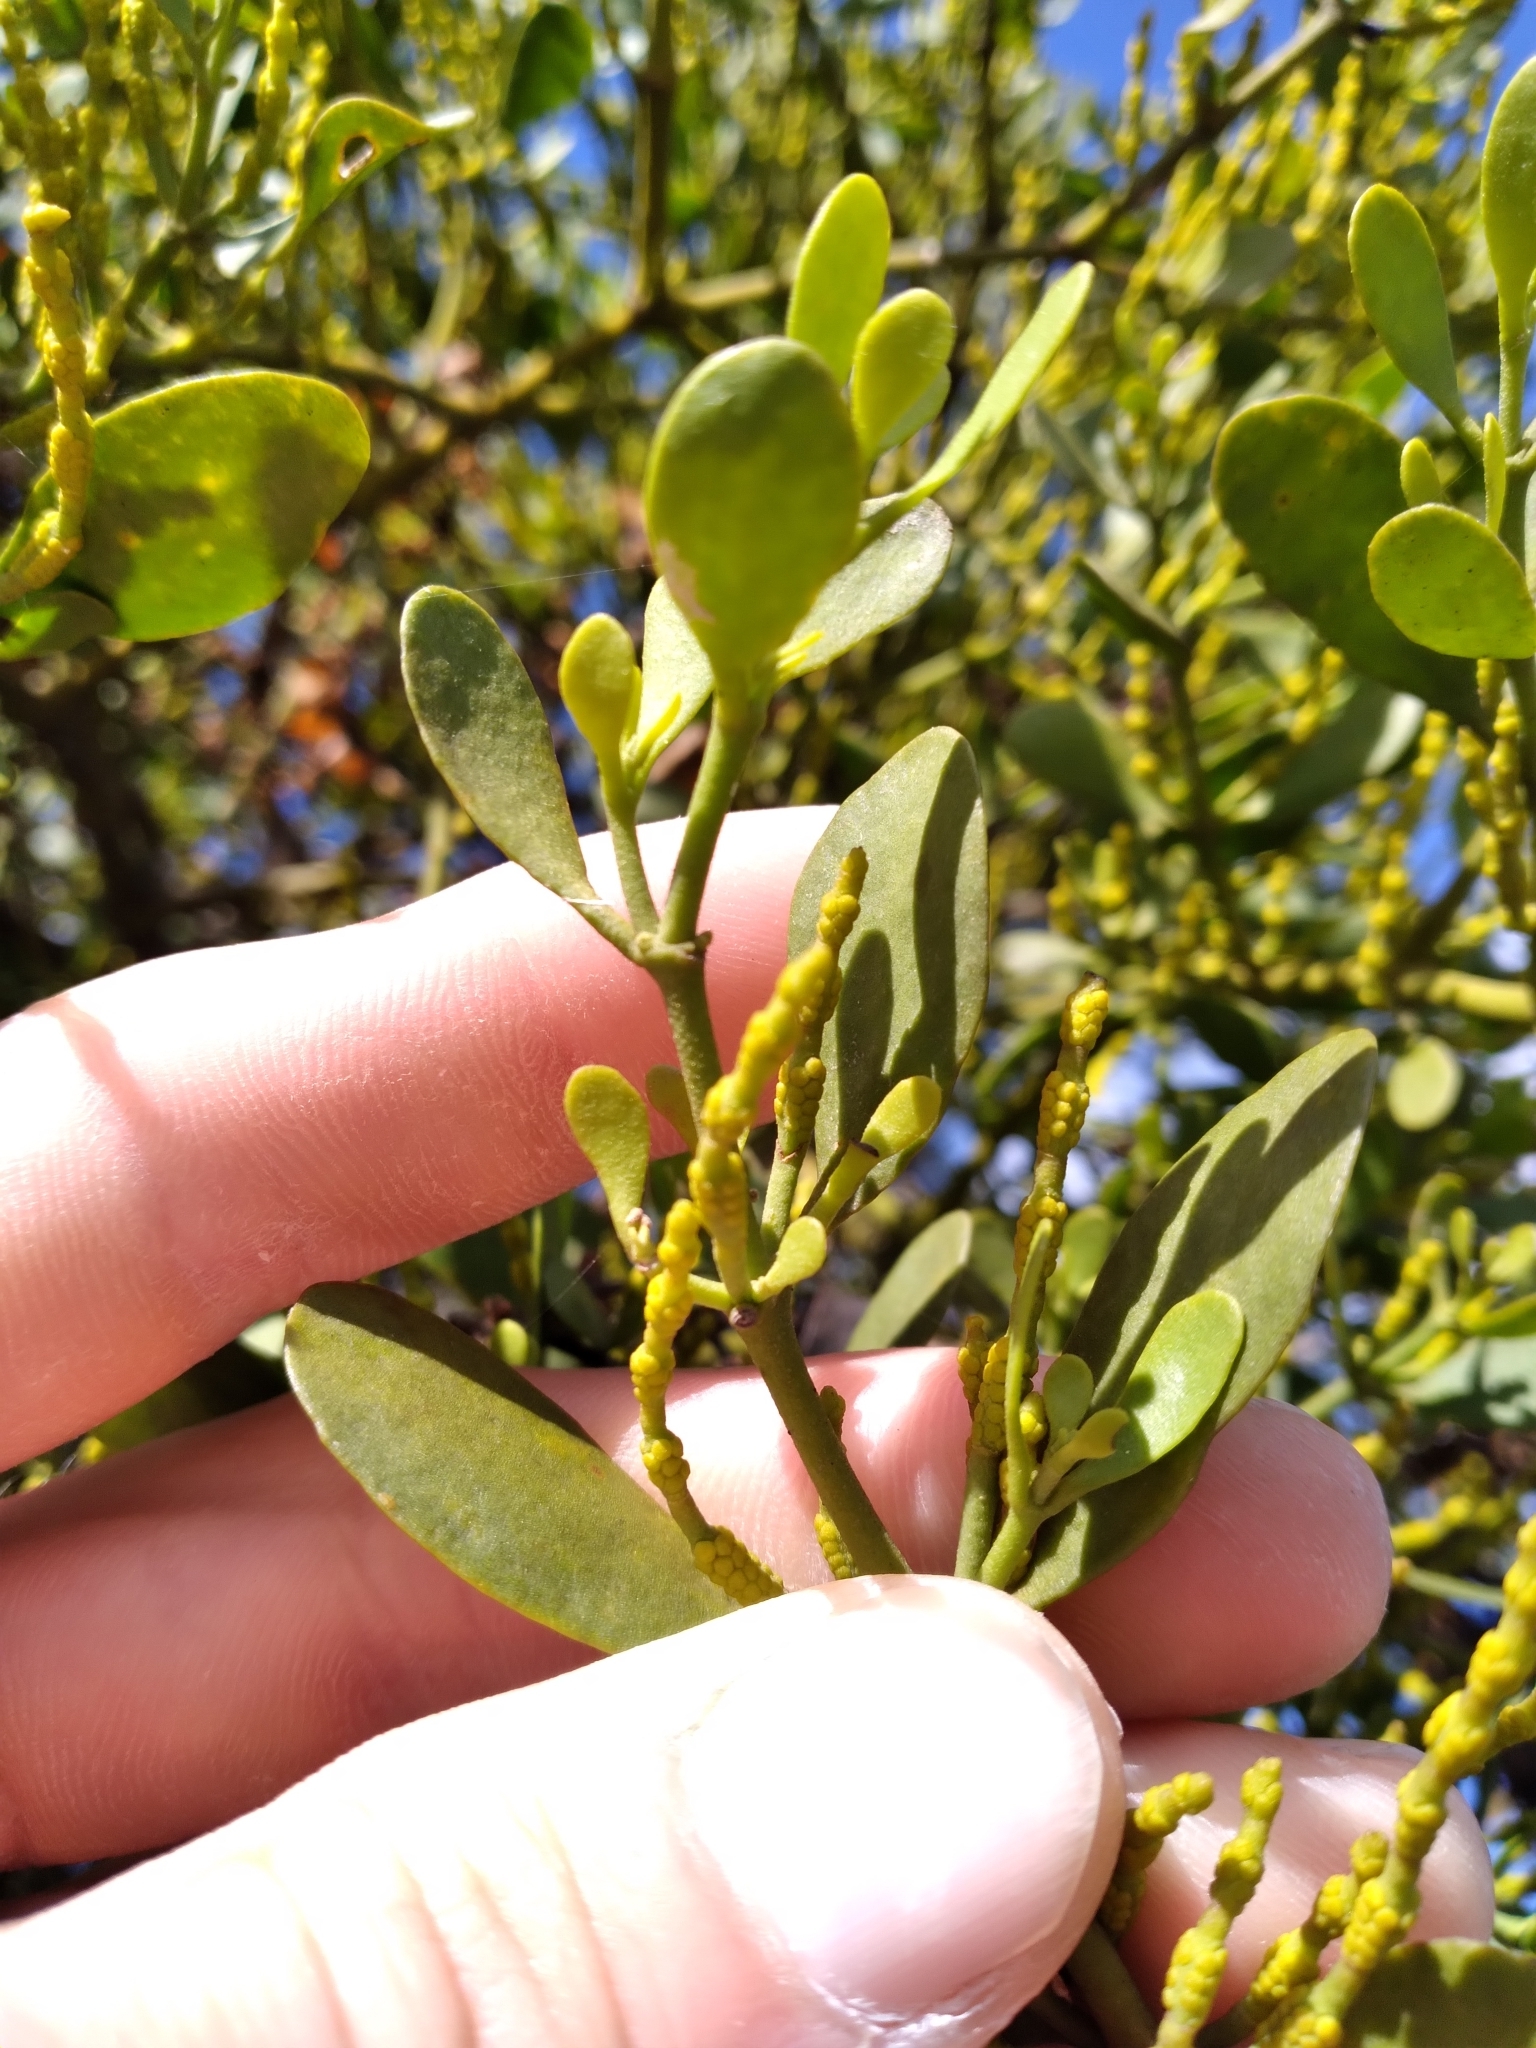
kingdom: Plantae
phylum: Tracheophyta
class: Magnoliopsida
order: Santalales
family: Viscaceae
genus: Phoradendron
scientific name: Phoradendron leucarpum
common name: Pacific mistletoe
